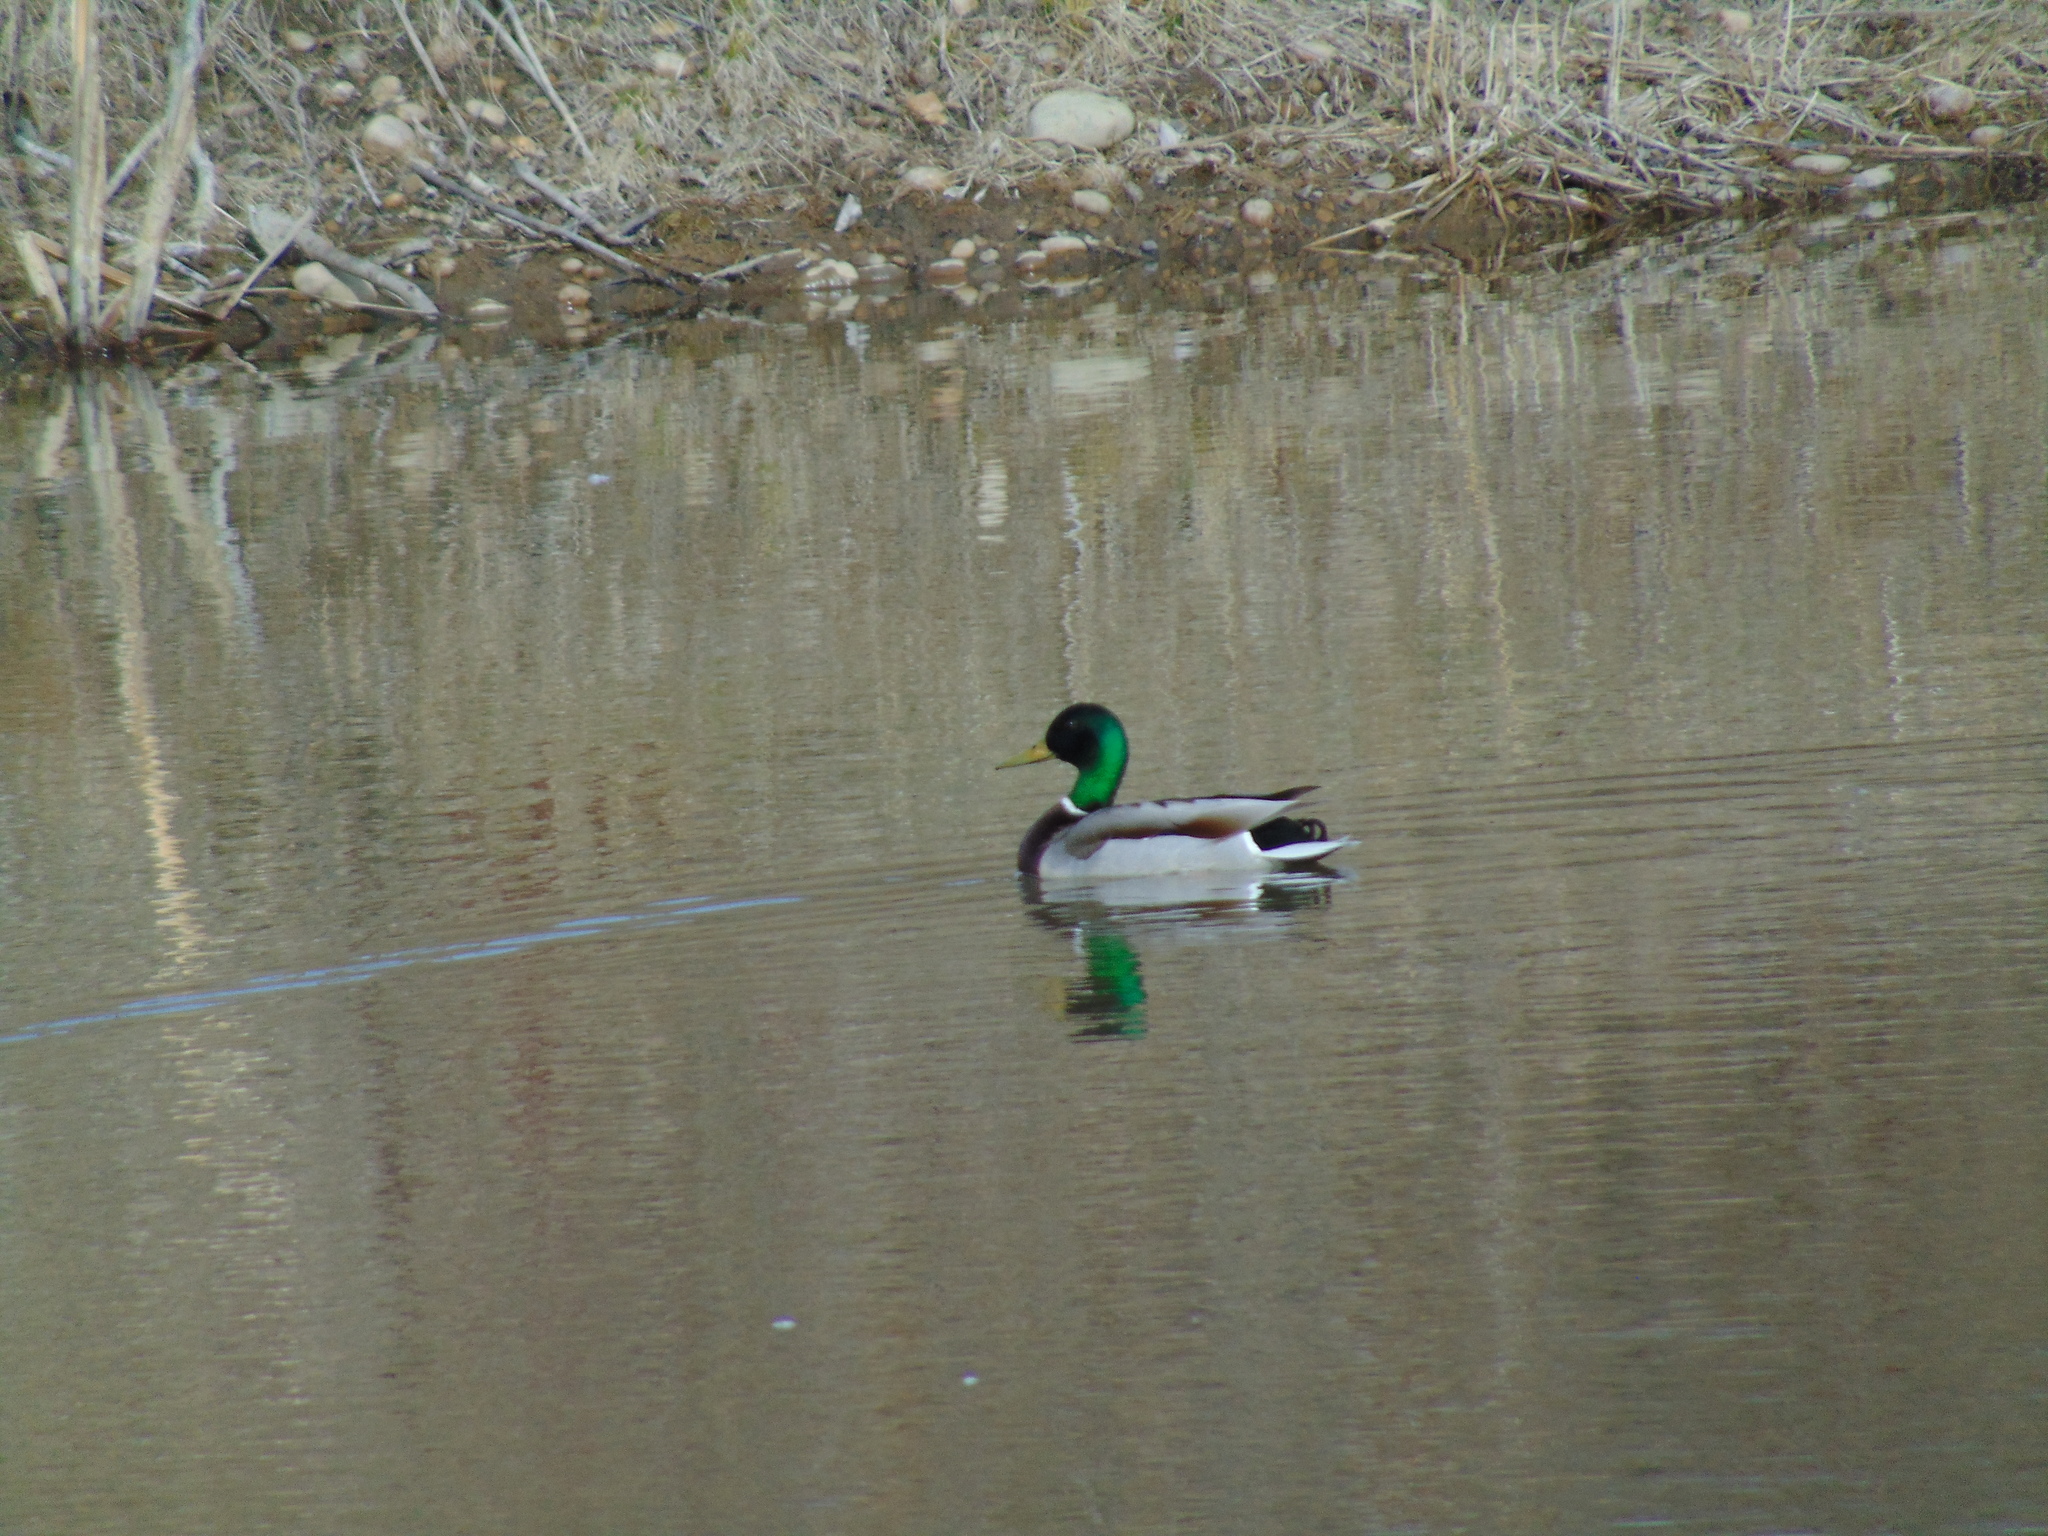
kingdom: Animalia
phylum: Chordata
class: Aves
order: Anseriformes
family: Anatidae
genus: Anas
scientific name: Anas platyrhynchos
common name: Mallard
